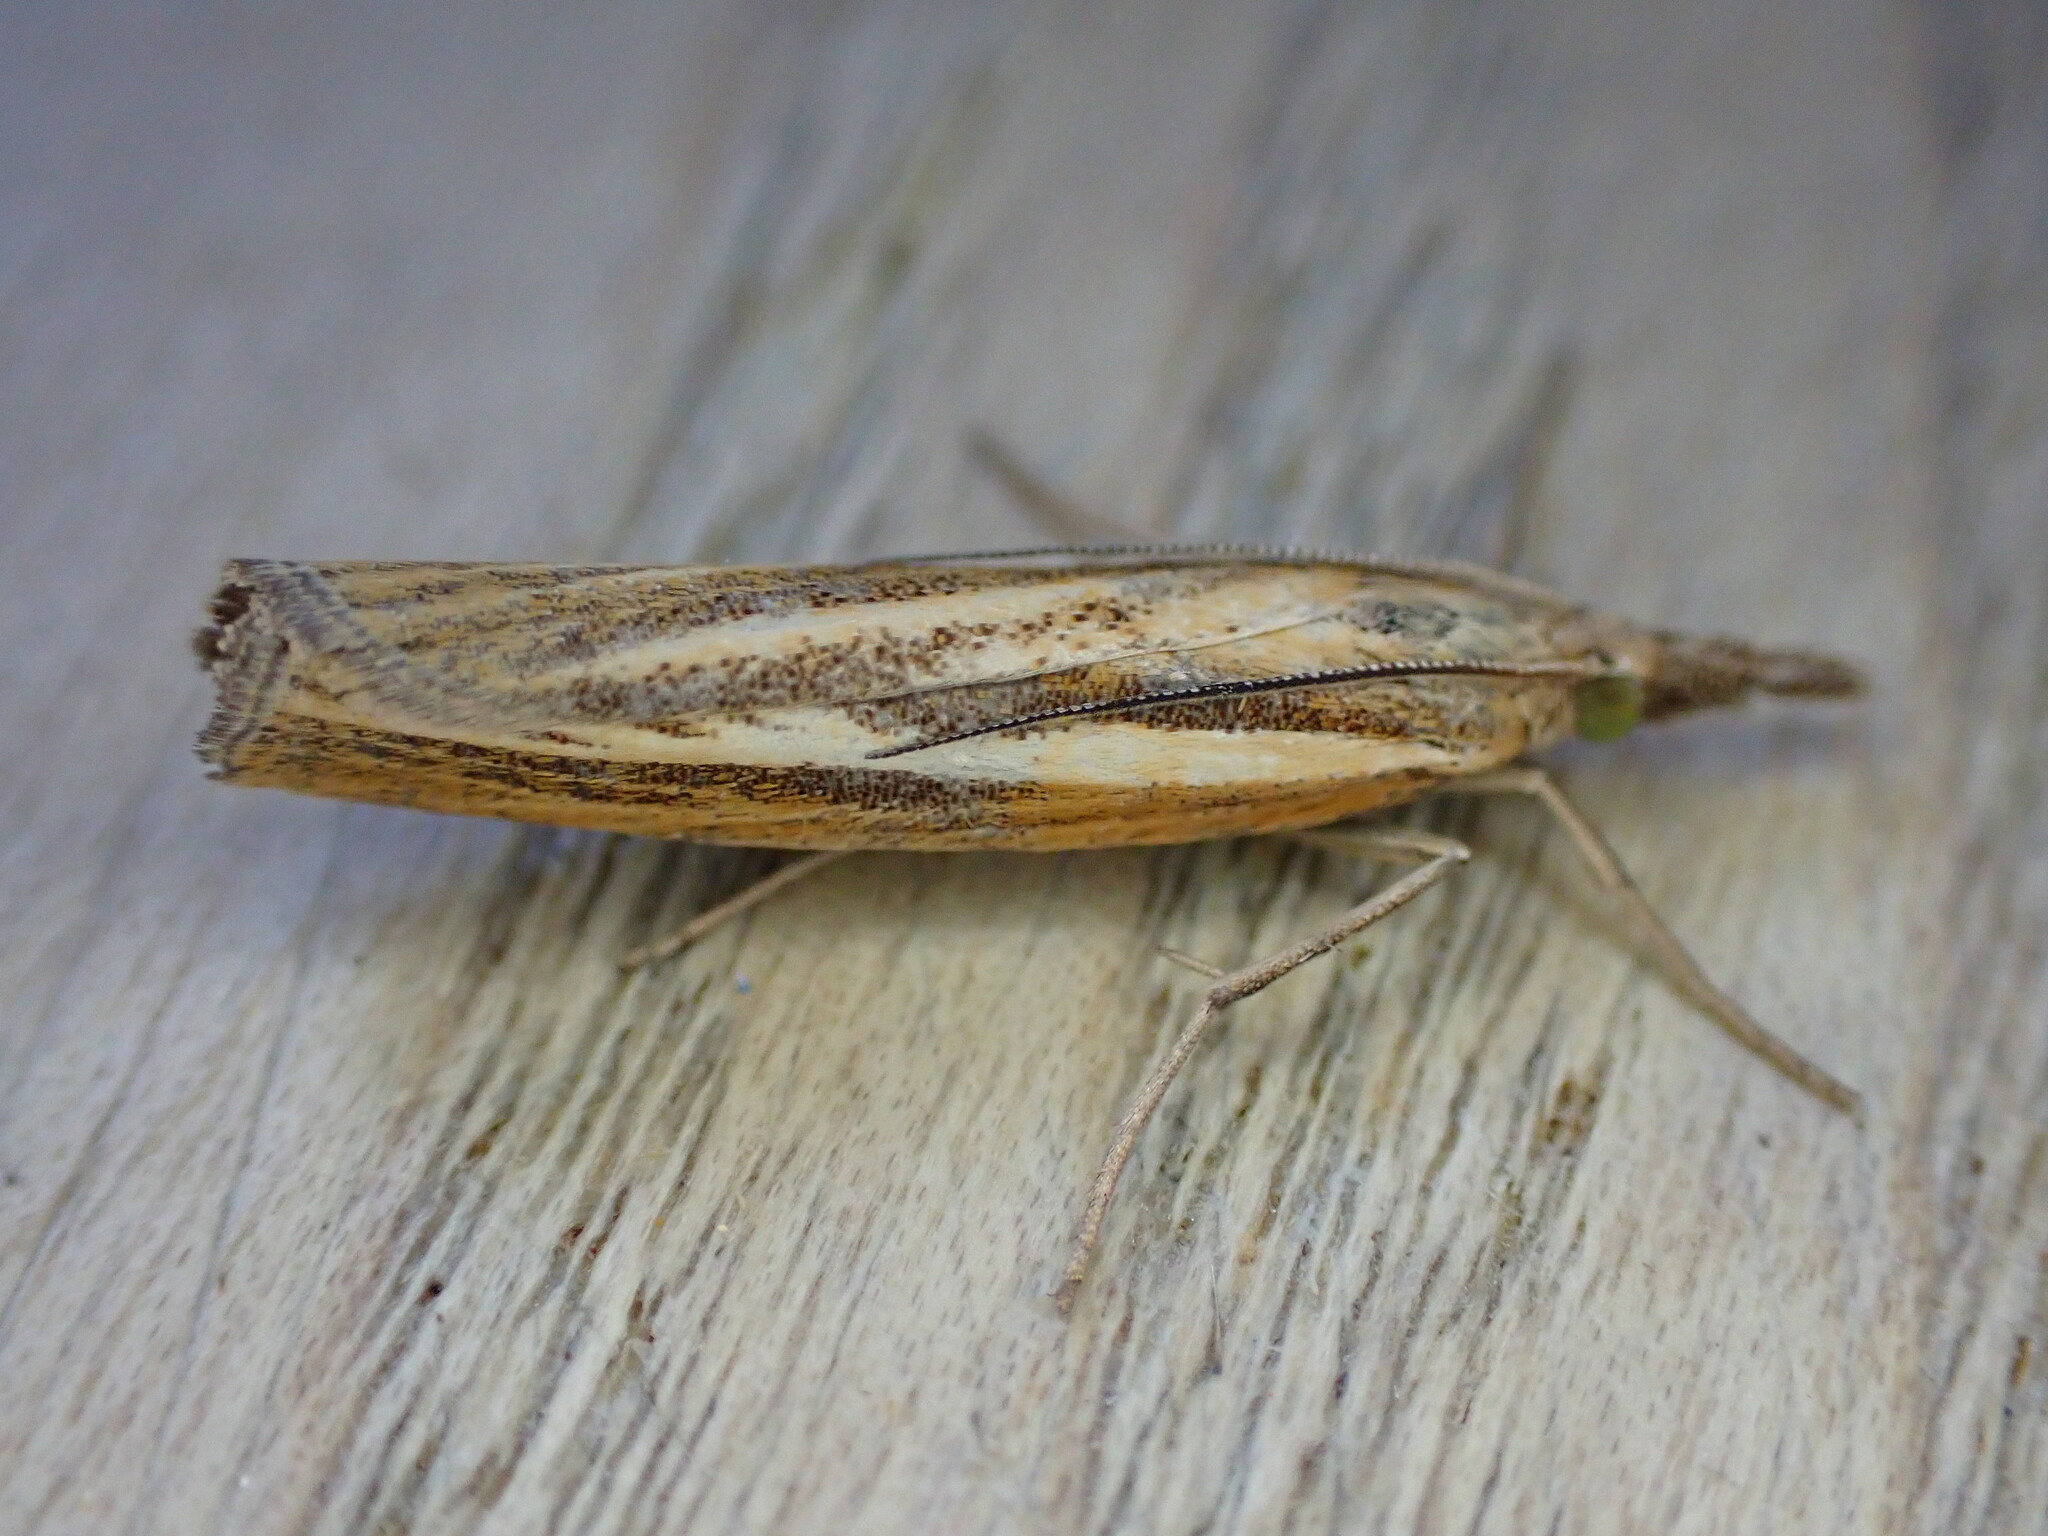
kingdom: Animalia
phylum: Arthropoda
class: Insecta
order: Lepidoptera
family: Crambidae
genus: Agriphila
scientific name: Agriphila tristellus
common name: Common grass-veneer
